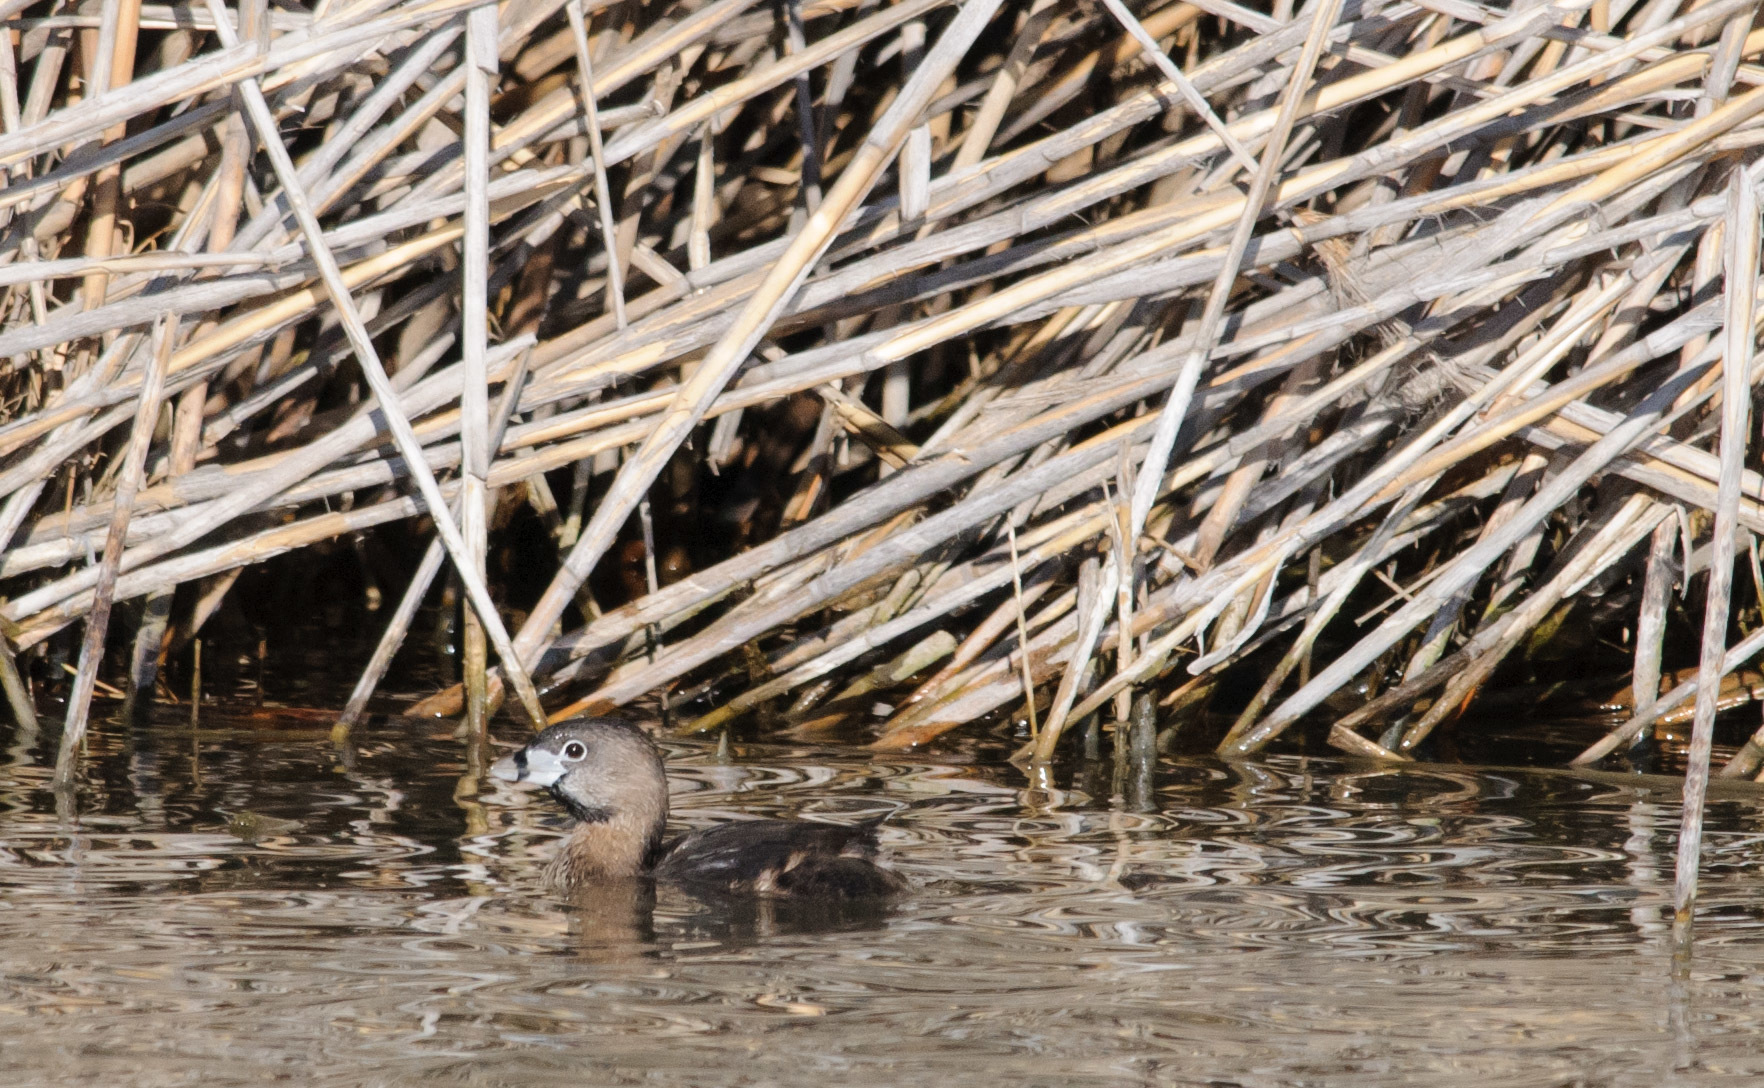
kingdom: Animalia
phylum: Chordata
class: Aves
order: Podicipediformes
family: Podicipedidae
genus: Podilymbus
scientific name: Podilymbus podiceps
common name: Pied-billed grebe
